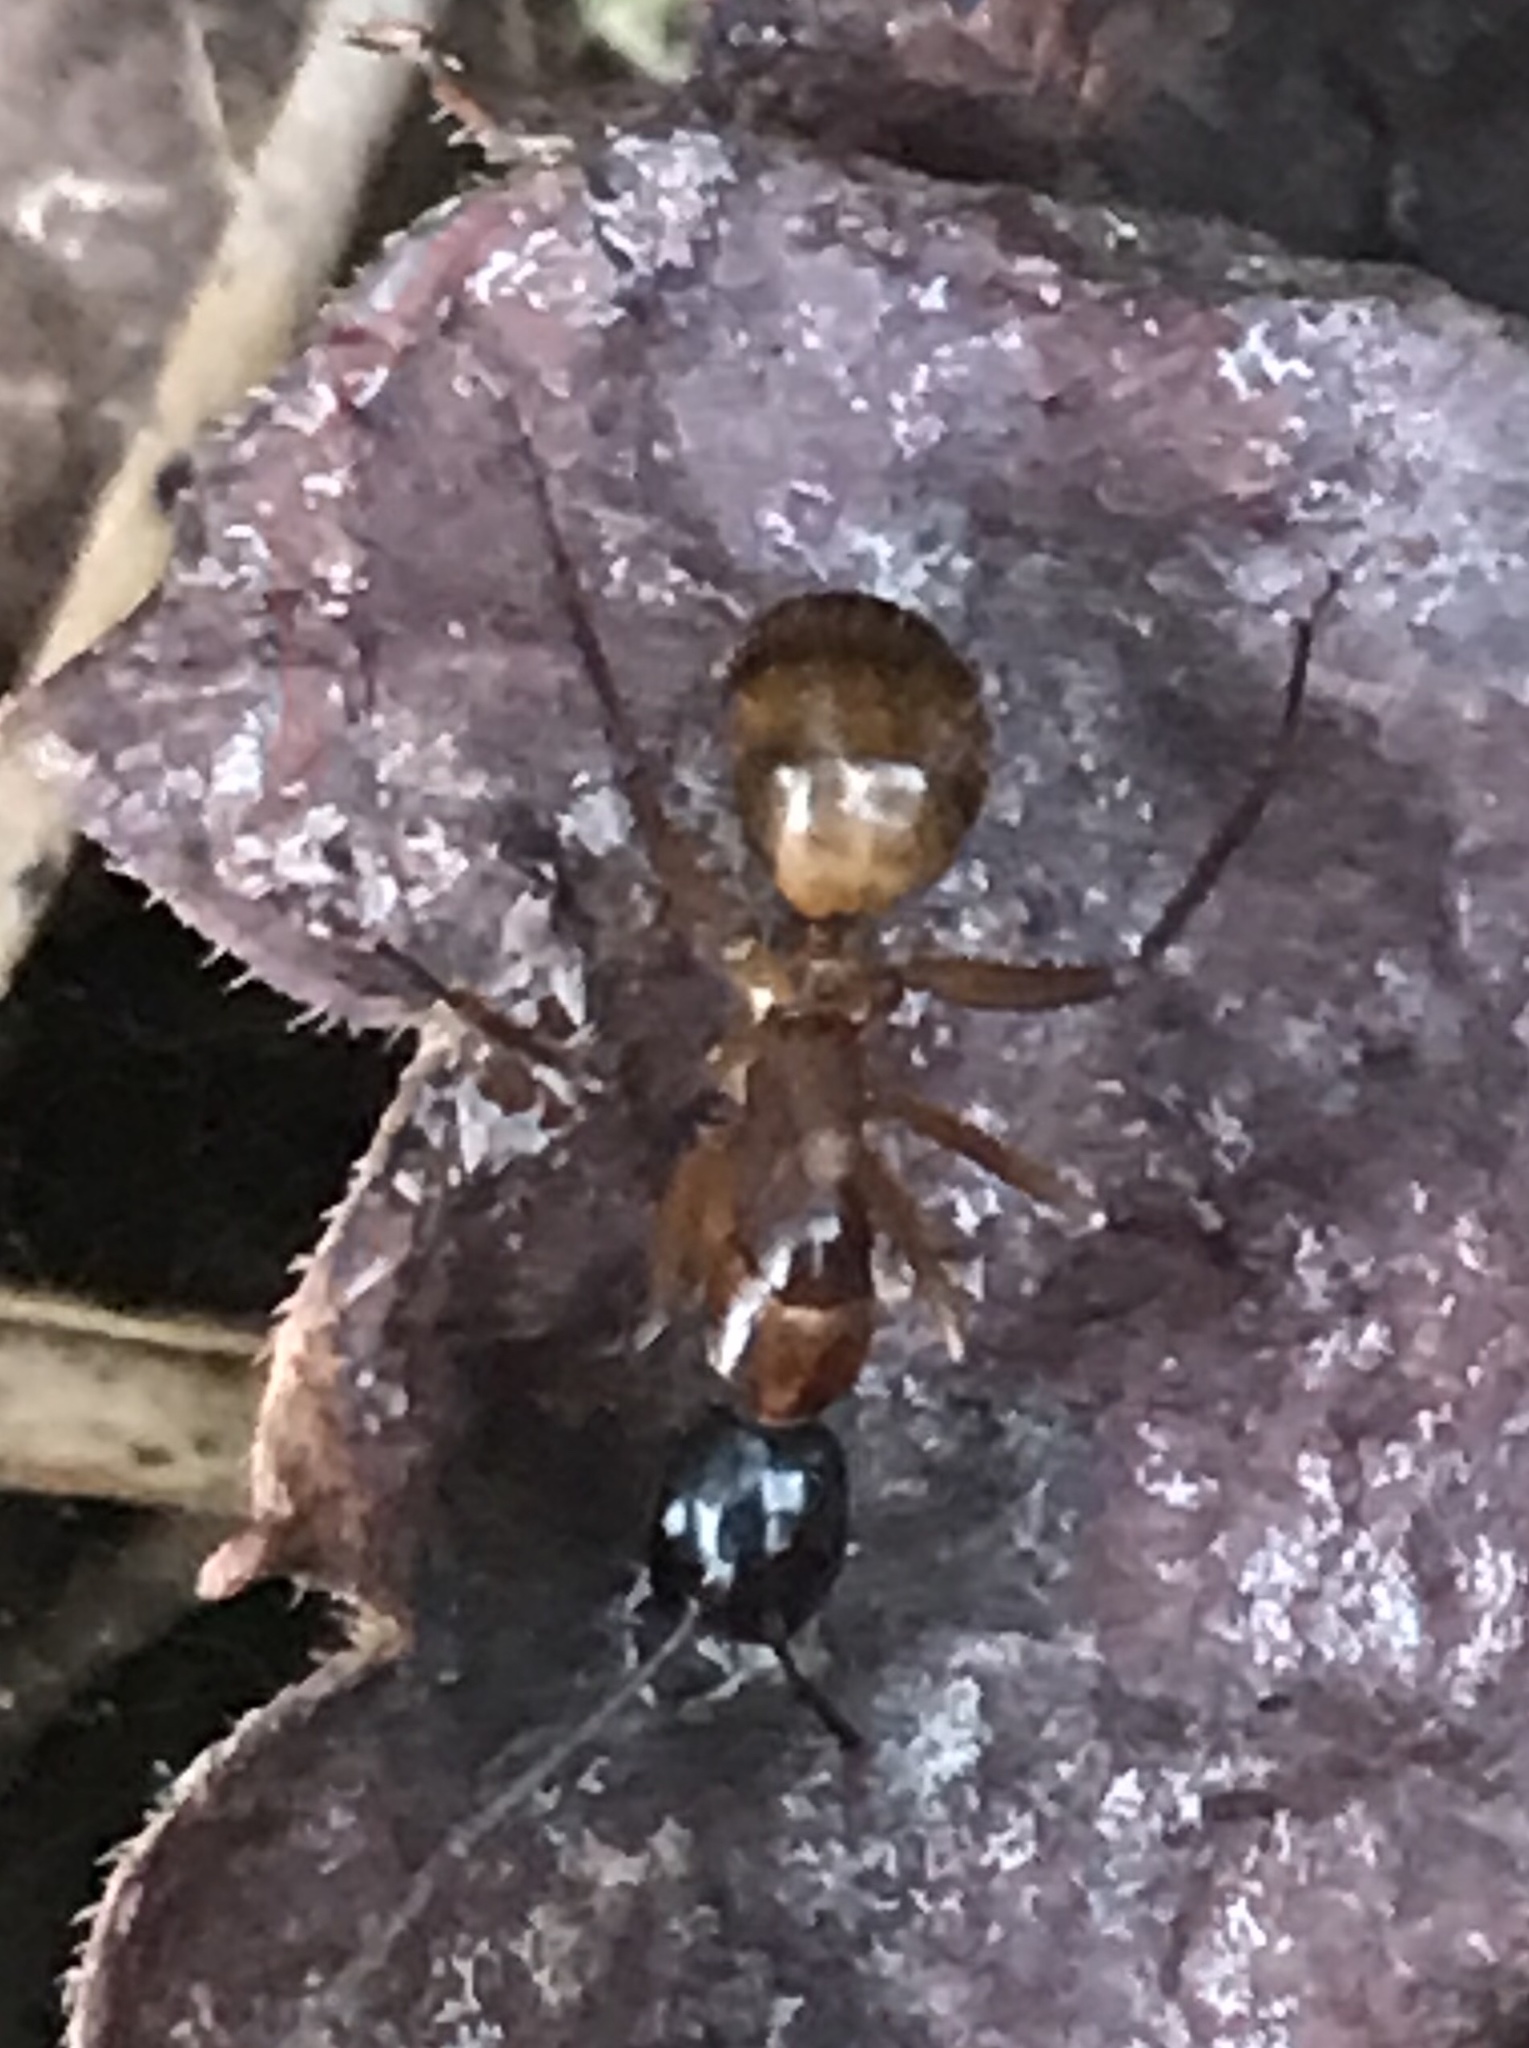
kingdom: Animalia
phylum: Arthropoda
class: Insecta
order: Hymenoptera
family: Formicidae
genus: Camponotus
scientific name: Camponotus americanus
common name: American carpenter ant
